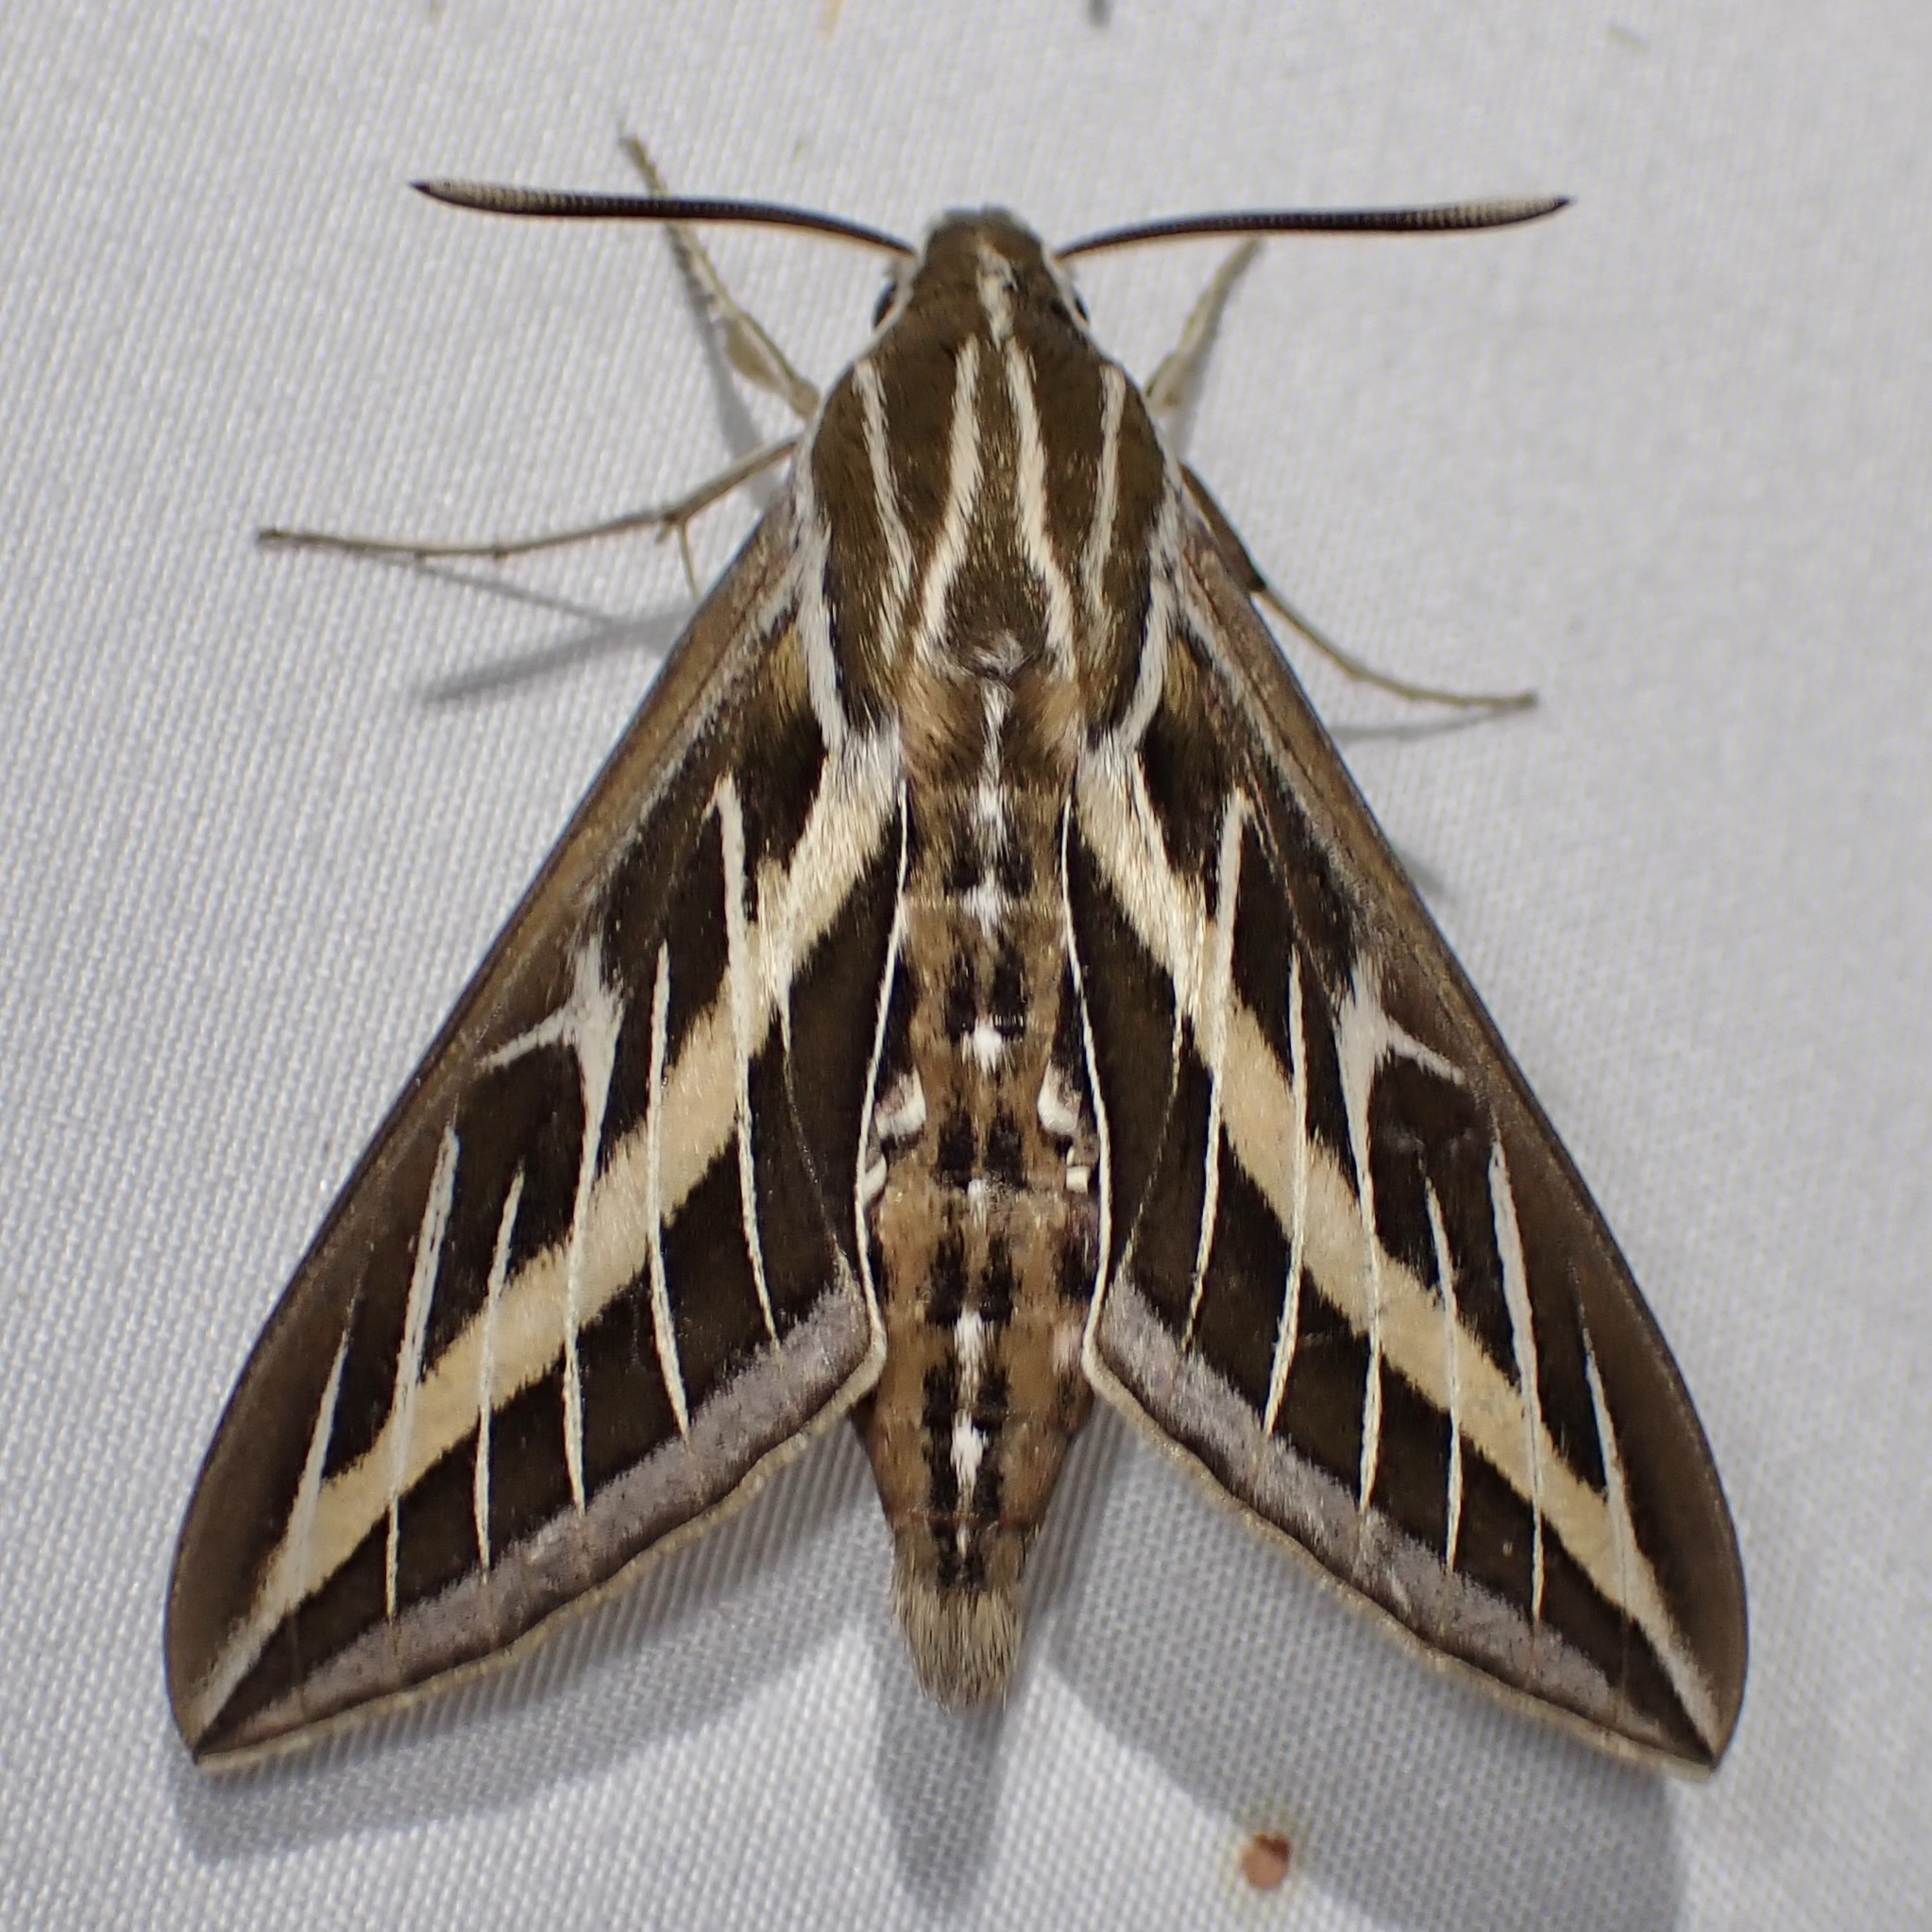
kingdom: Animalia
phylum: Arthropoda
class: Insecta
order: Lepidoptera
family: Sphingidae
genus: Hyles
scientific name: Hyles lineata
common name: White-lined sphinx
